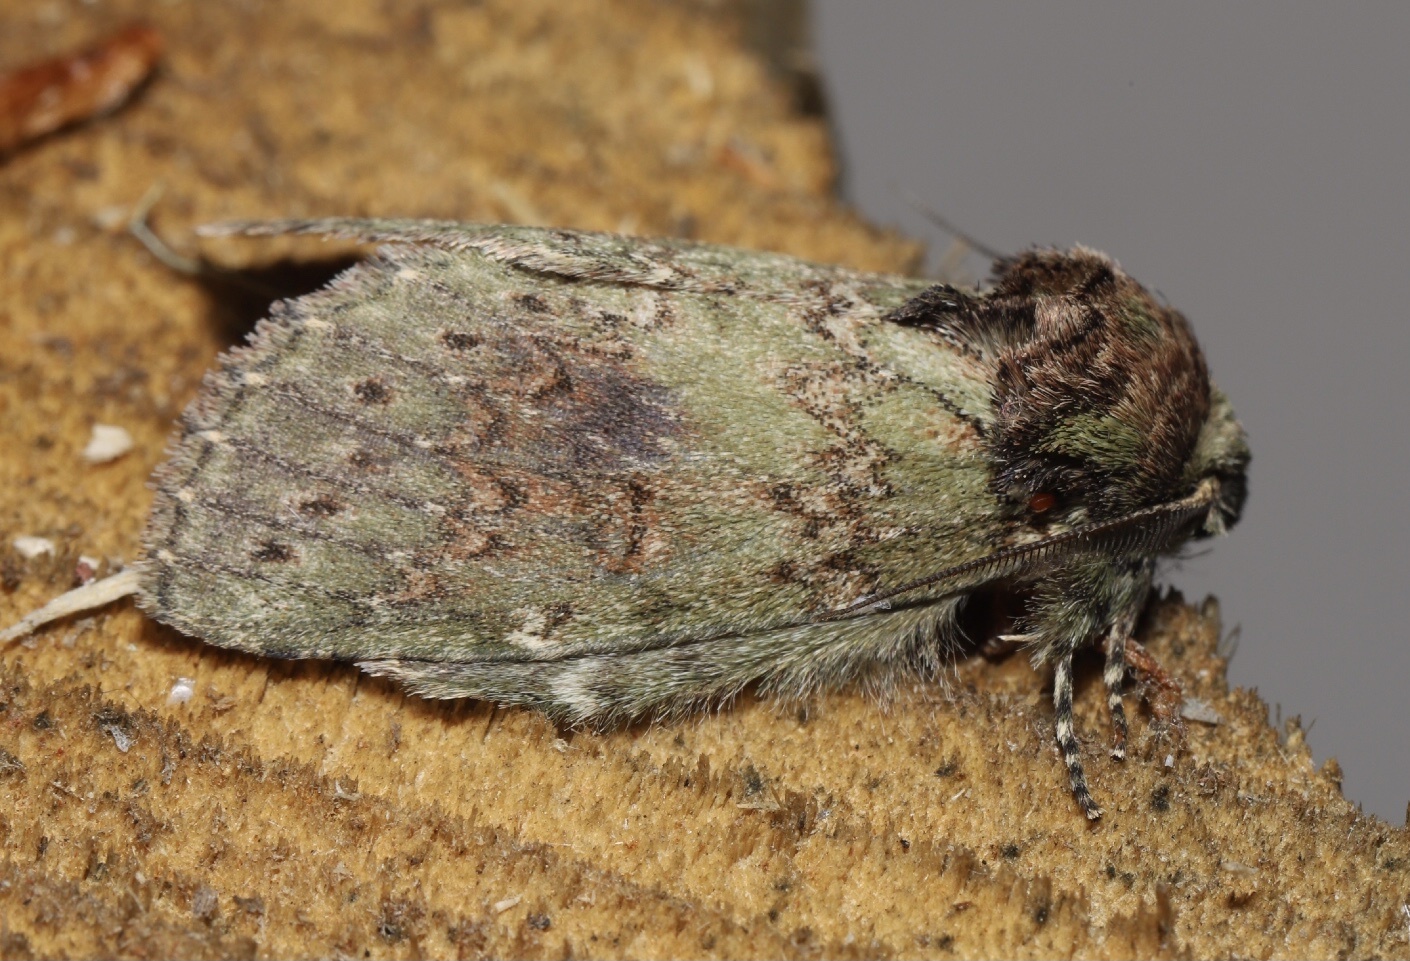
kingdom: Animalia
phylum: Arthropoda
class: Insecta
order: Lepidoptera
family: Notodontidae
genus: Disphragis
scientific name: Disphragis Cecrita biundata
